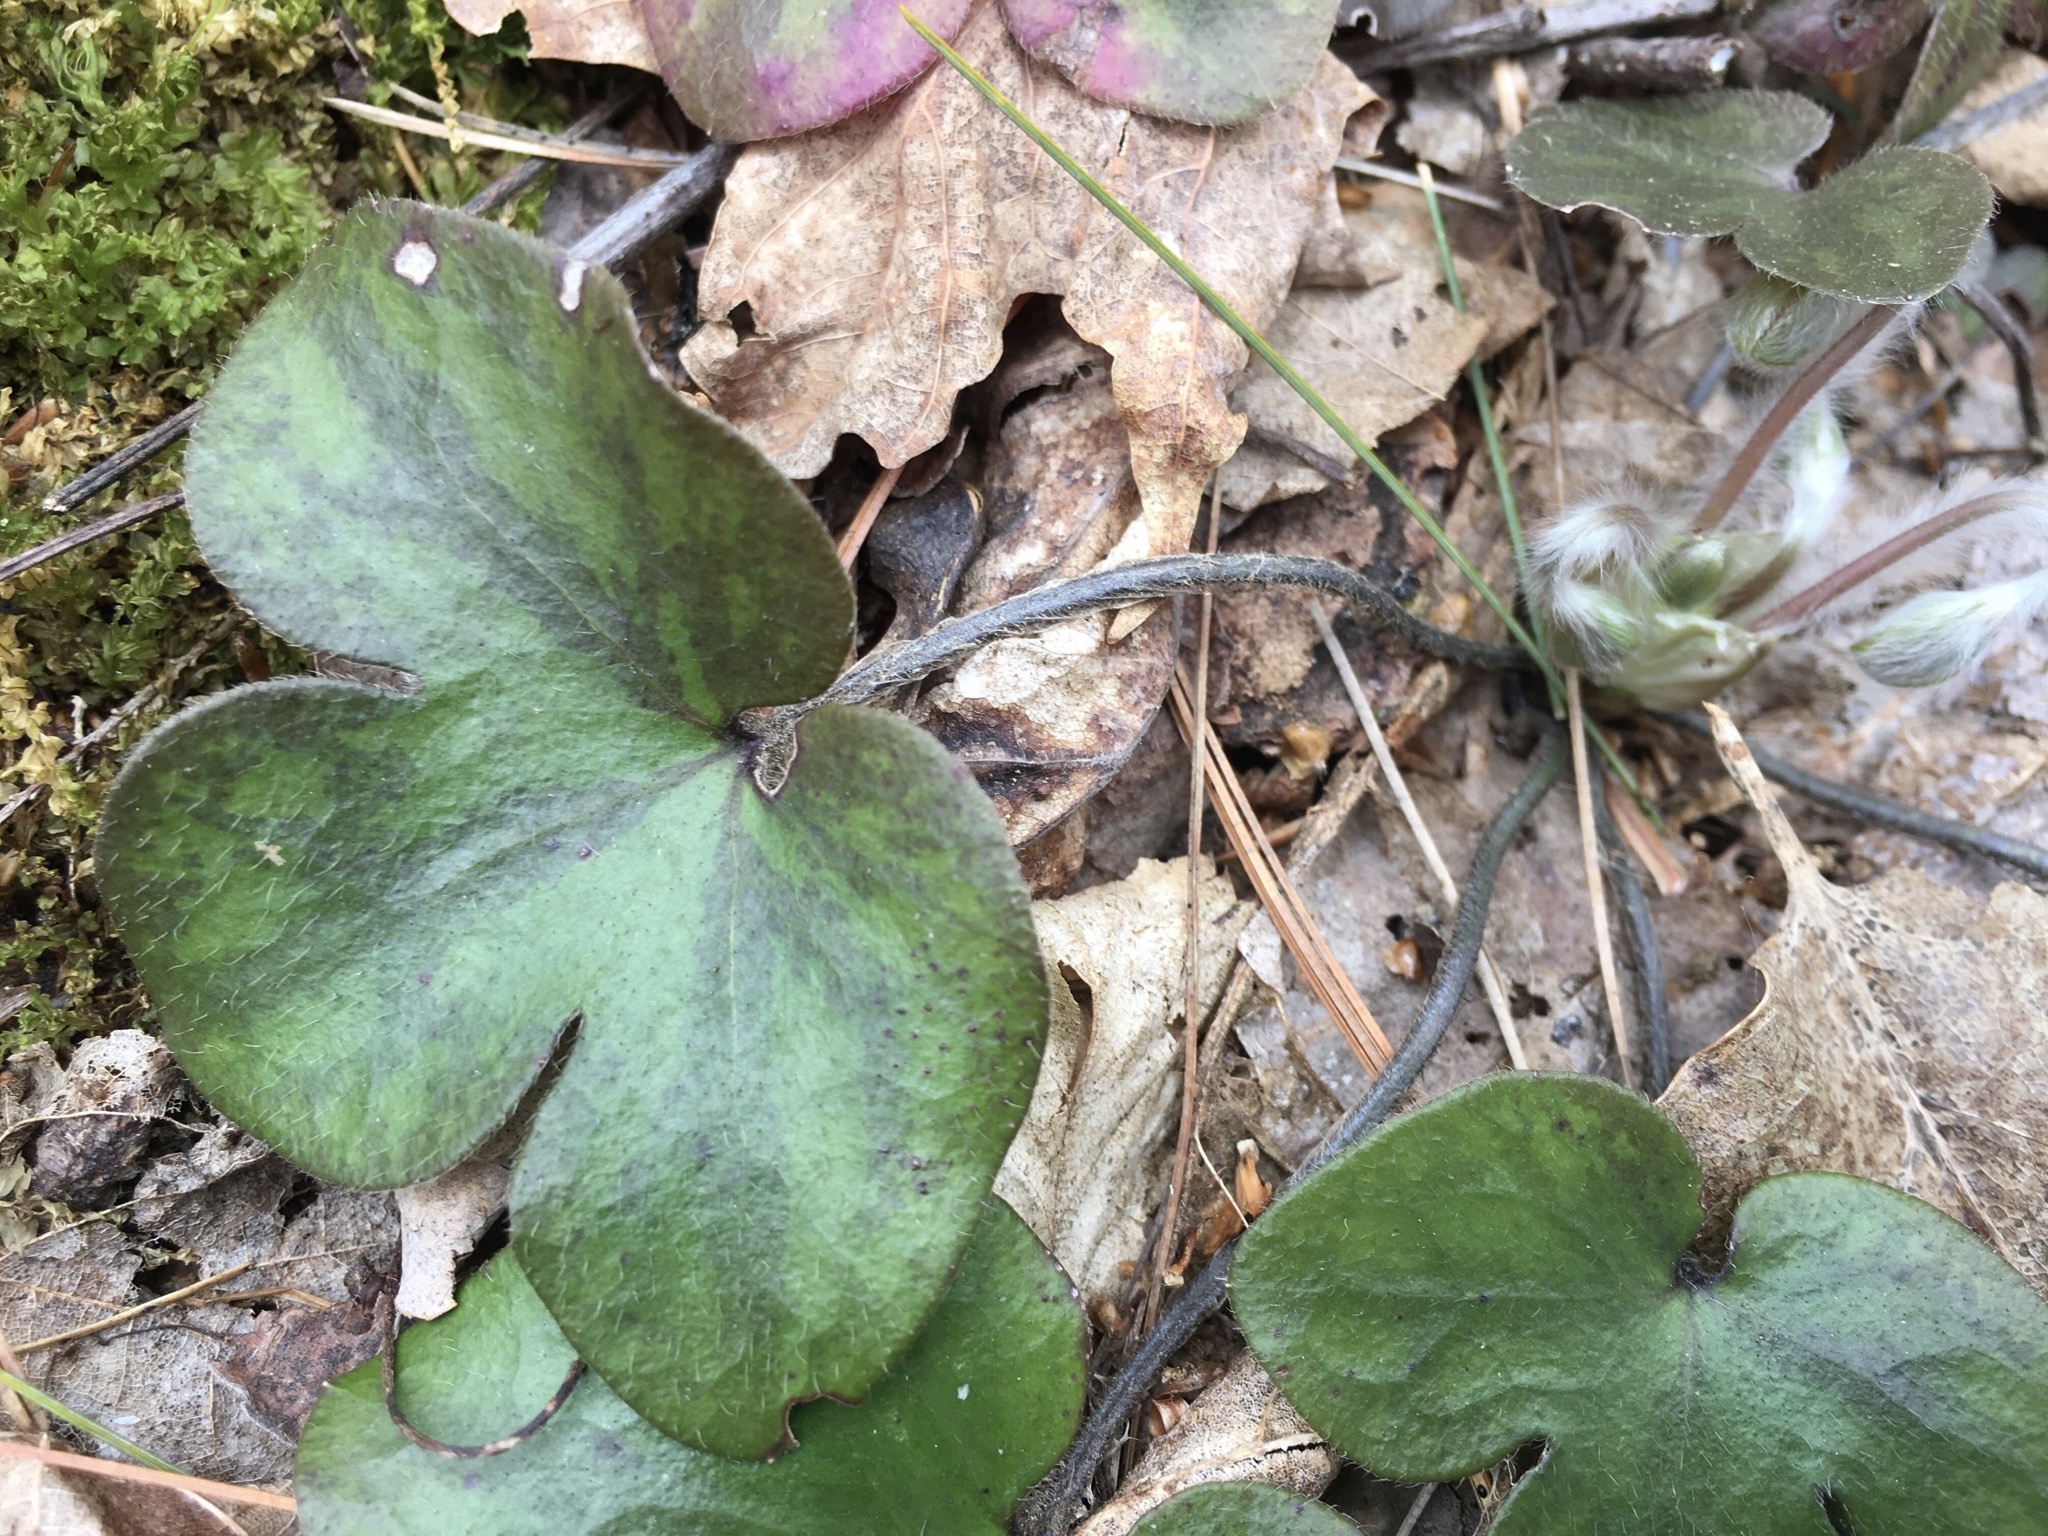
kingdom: Plantae
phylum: Tracheophyta
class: Magnoliopsida
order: Ranunculales
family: Ranunculaceae
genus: Hepatica
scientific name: Hepatica americana
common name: American hepatica
